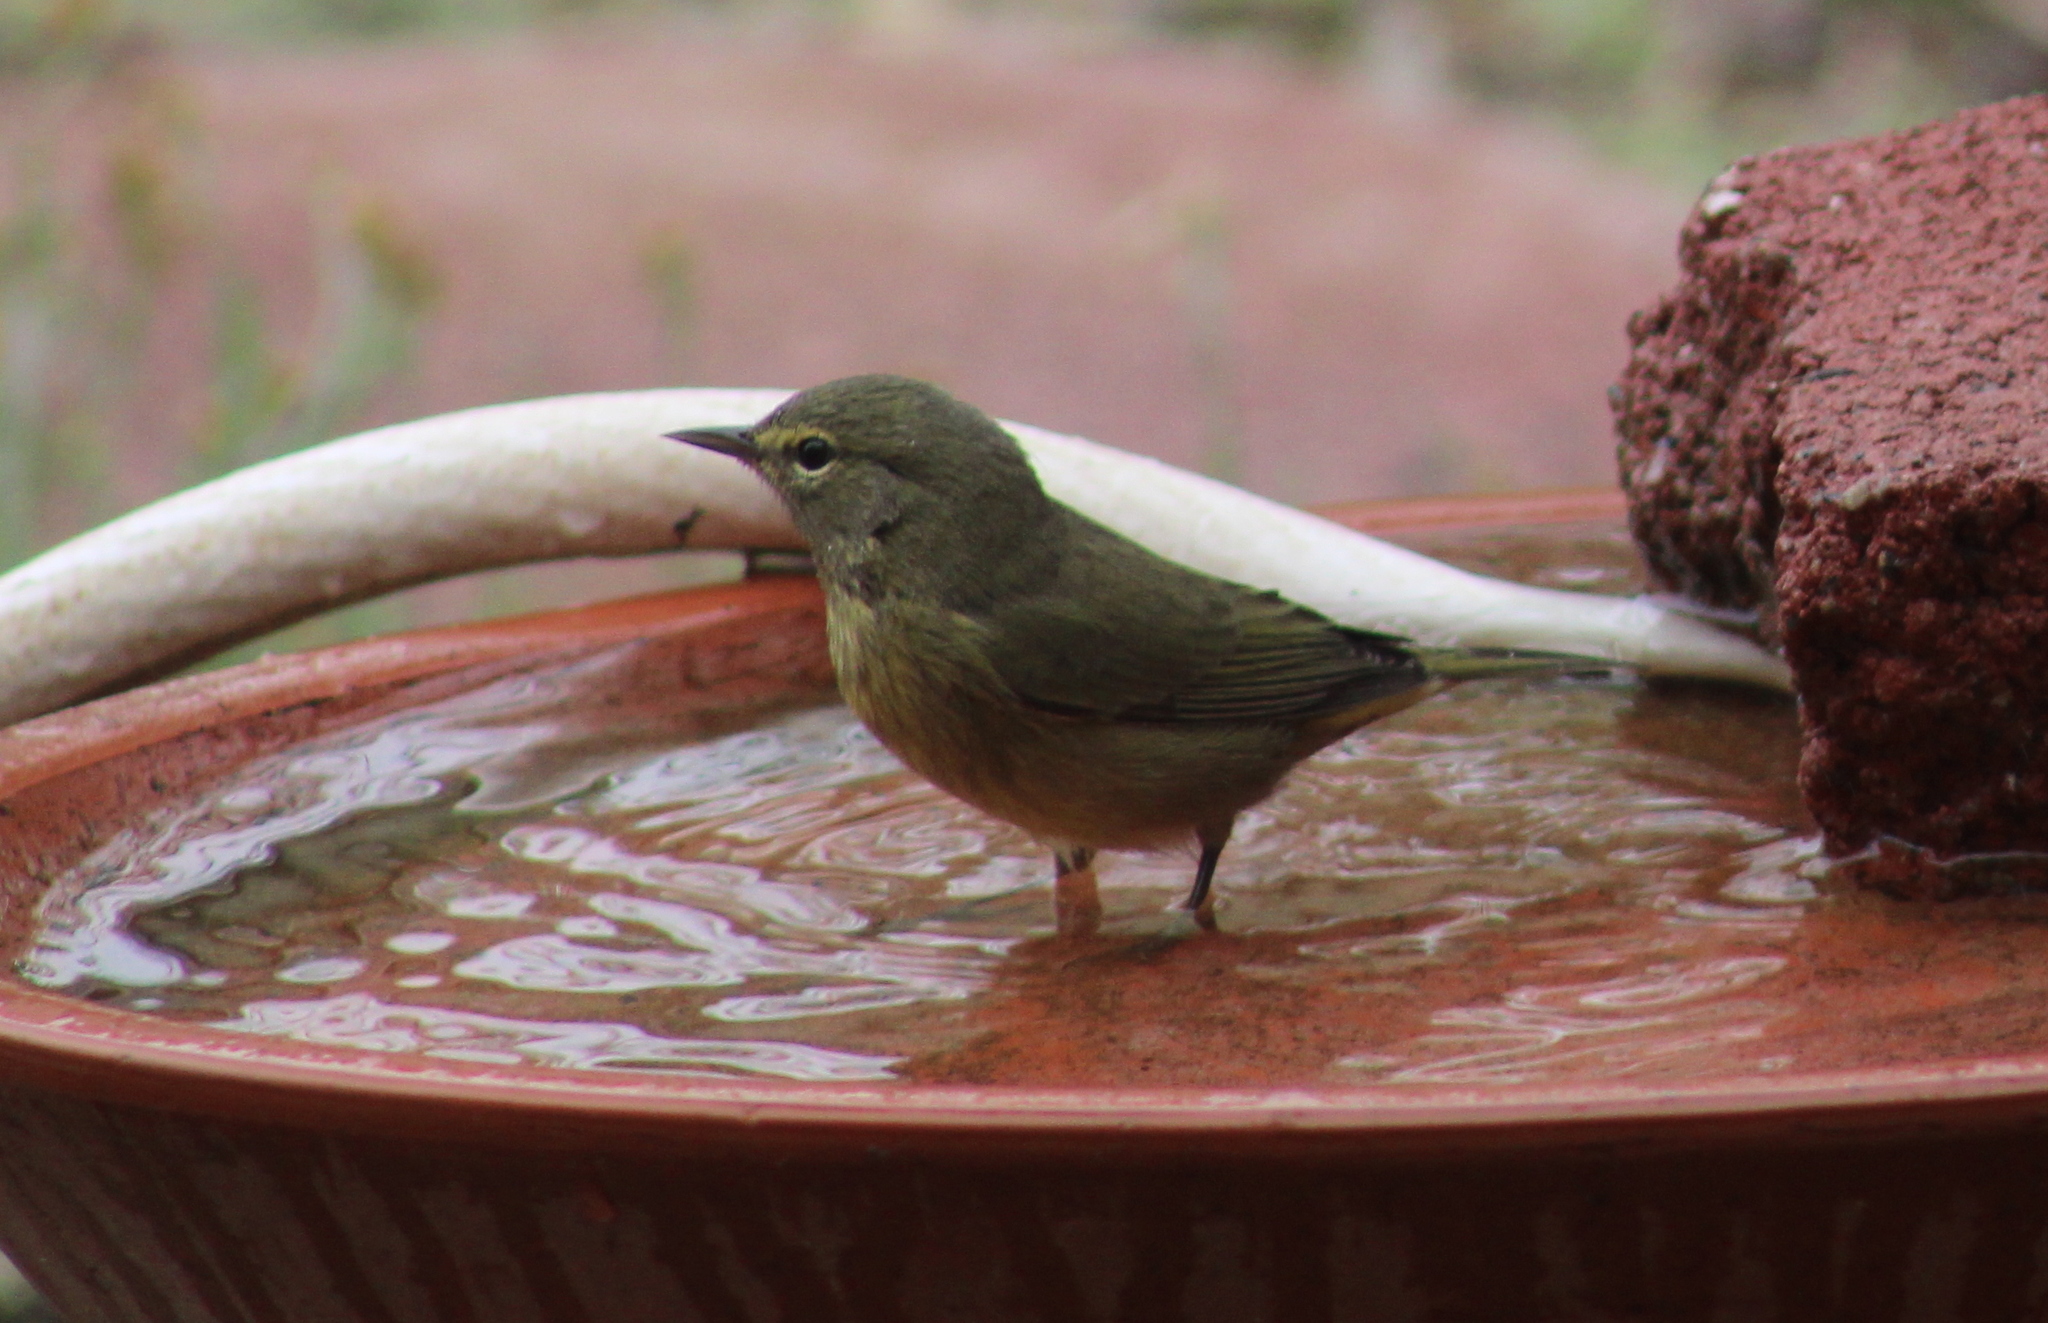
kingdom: Animalia
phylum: Chordata
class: Aves
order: Passeriformes
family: Parulidae
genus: Leiothlypis
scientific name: Leiothlypis celata
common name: Orange-crowned warbler
